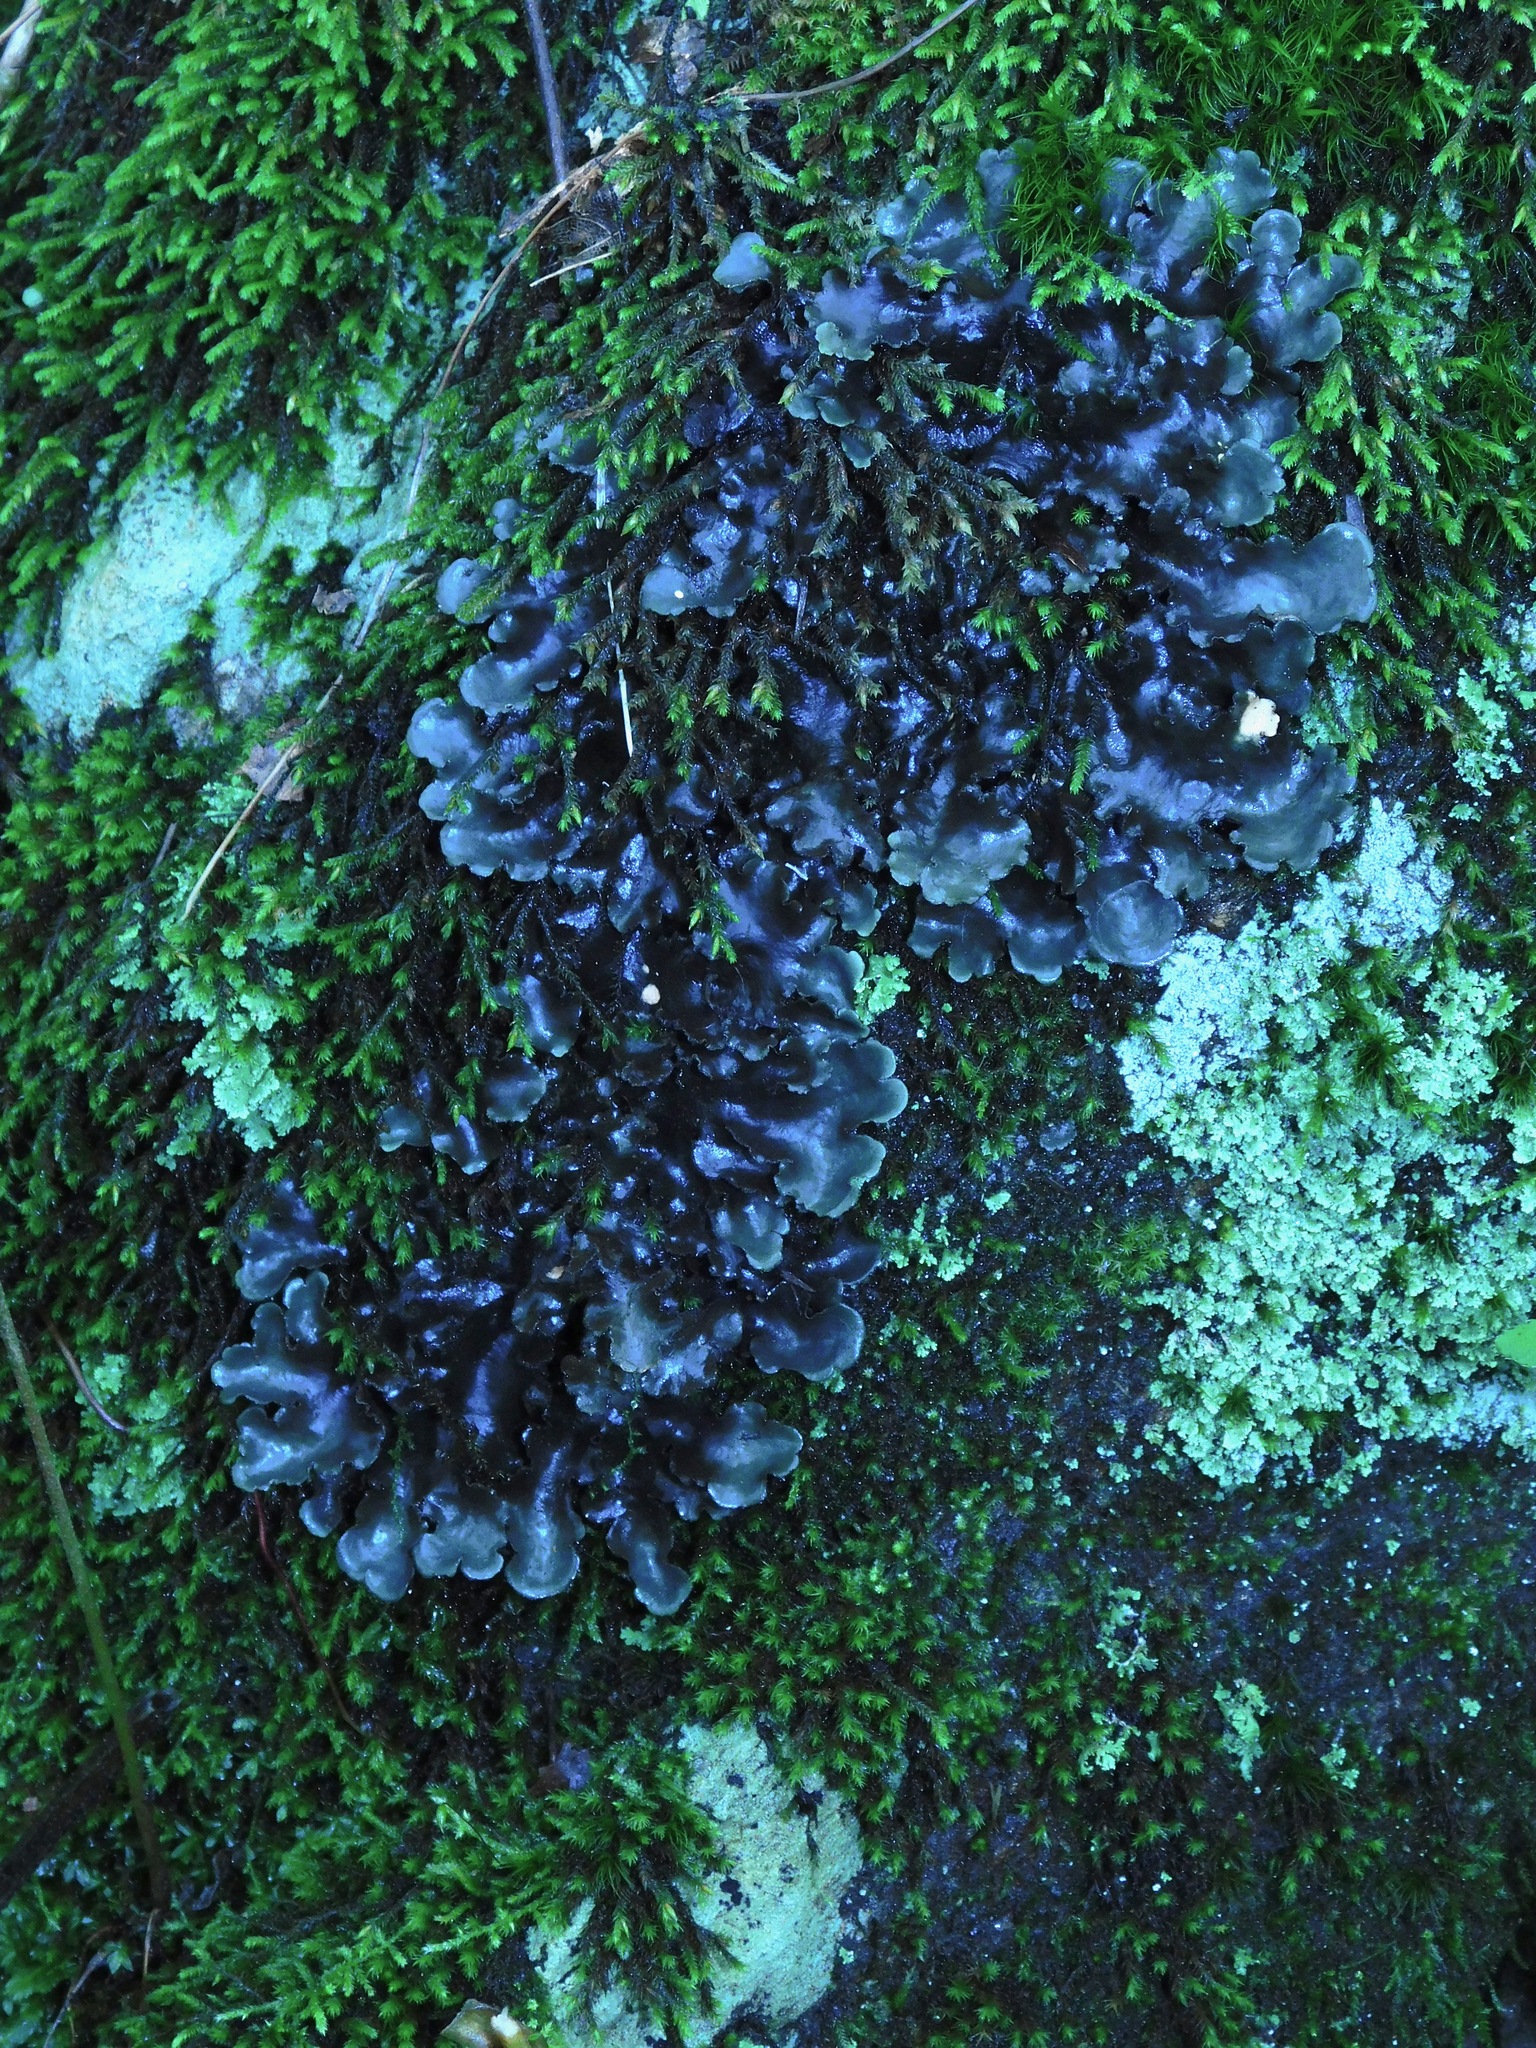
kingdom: Fungi
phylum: Ascomycota
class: Lecanoromycetes
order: Peltigerales
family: Lobariaceae
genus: Sticta
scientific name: Sticta beauvoisii
